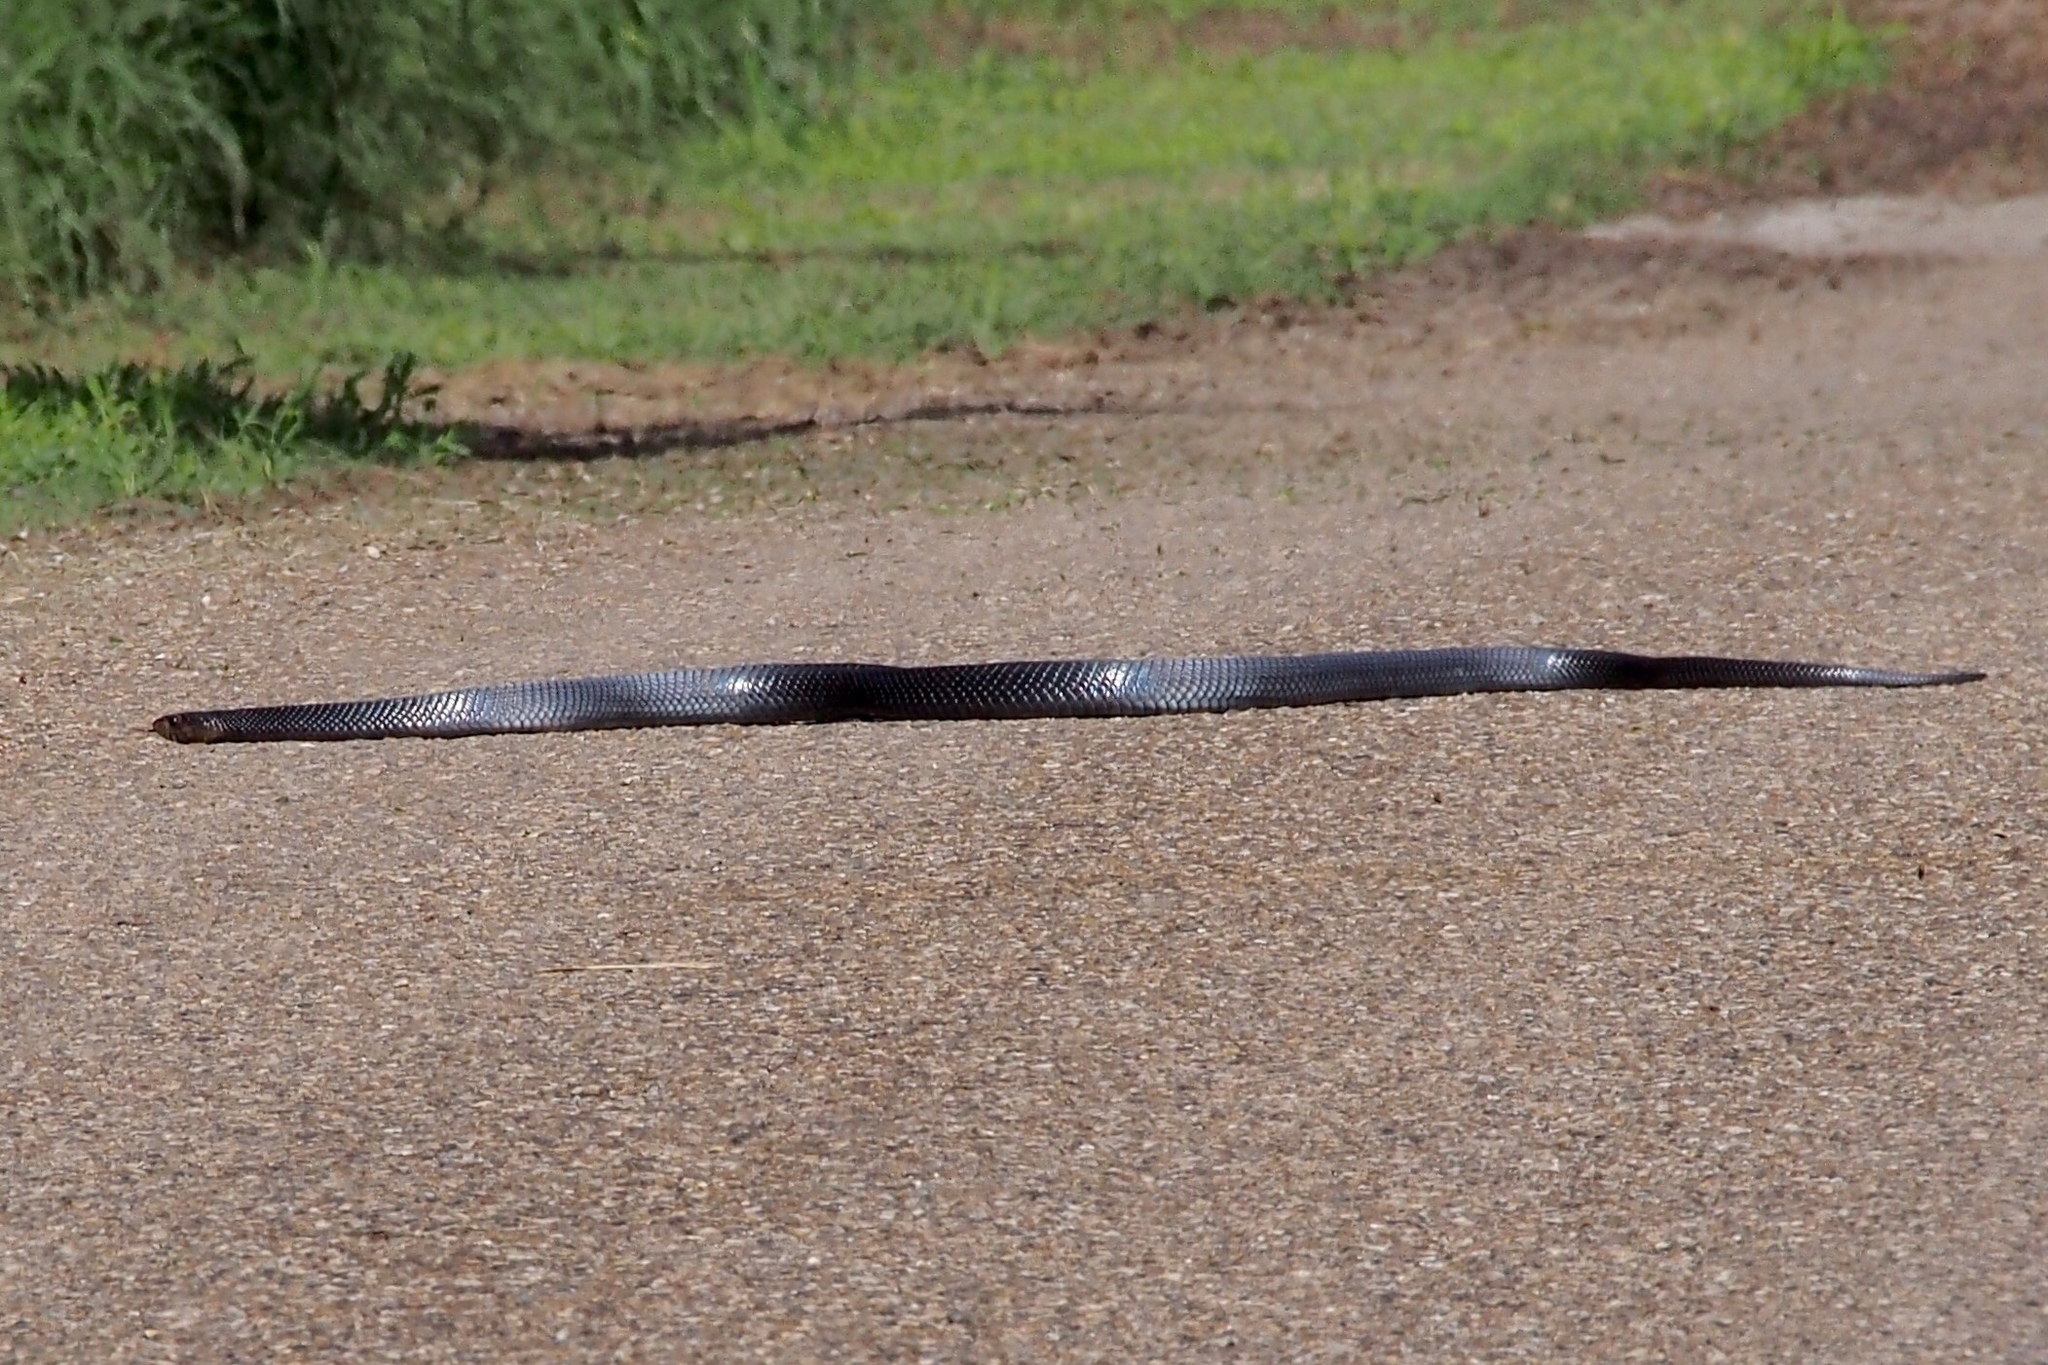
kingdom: Animalia
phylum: Chordata
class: Squamata
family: Colubridae
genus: Drymarchon
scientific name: Drymarchon melanurus
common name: Central american indigo snake
